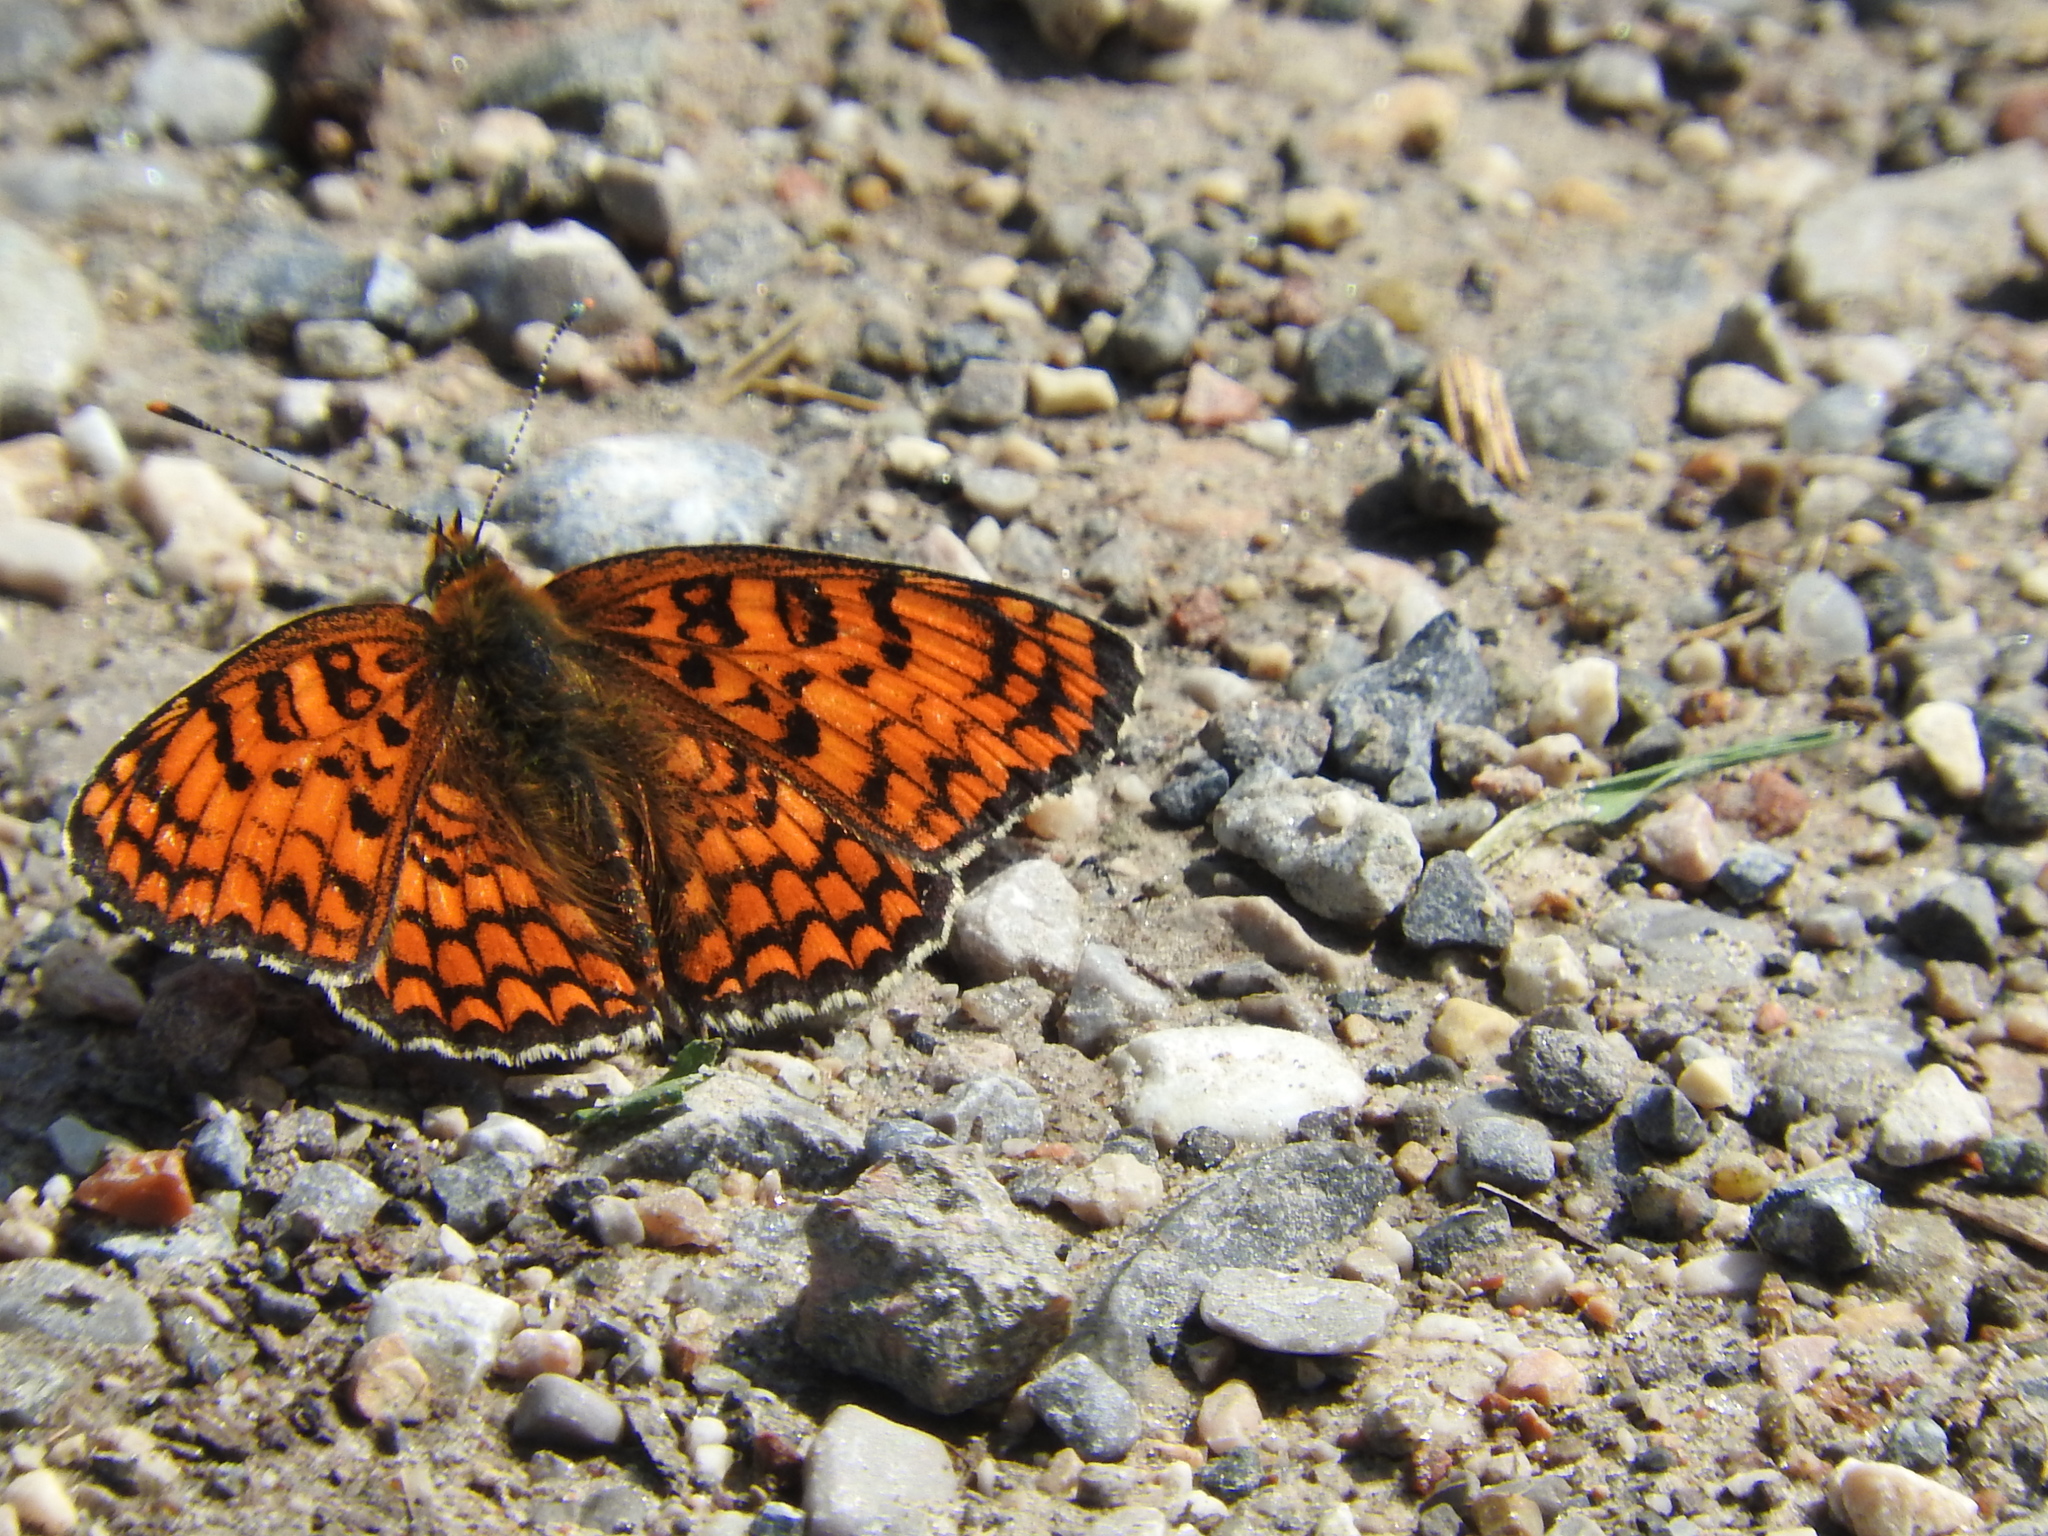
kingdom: Animalia
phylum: Arthropoda
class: Insecta
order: Lepidoptera
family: Nymphalidae
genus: Melitaea
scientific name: Melitaea phoebe
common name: Knapweed fritillary
